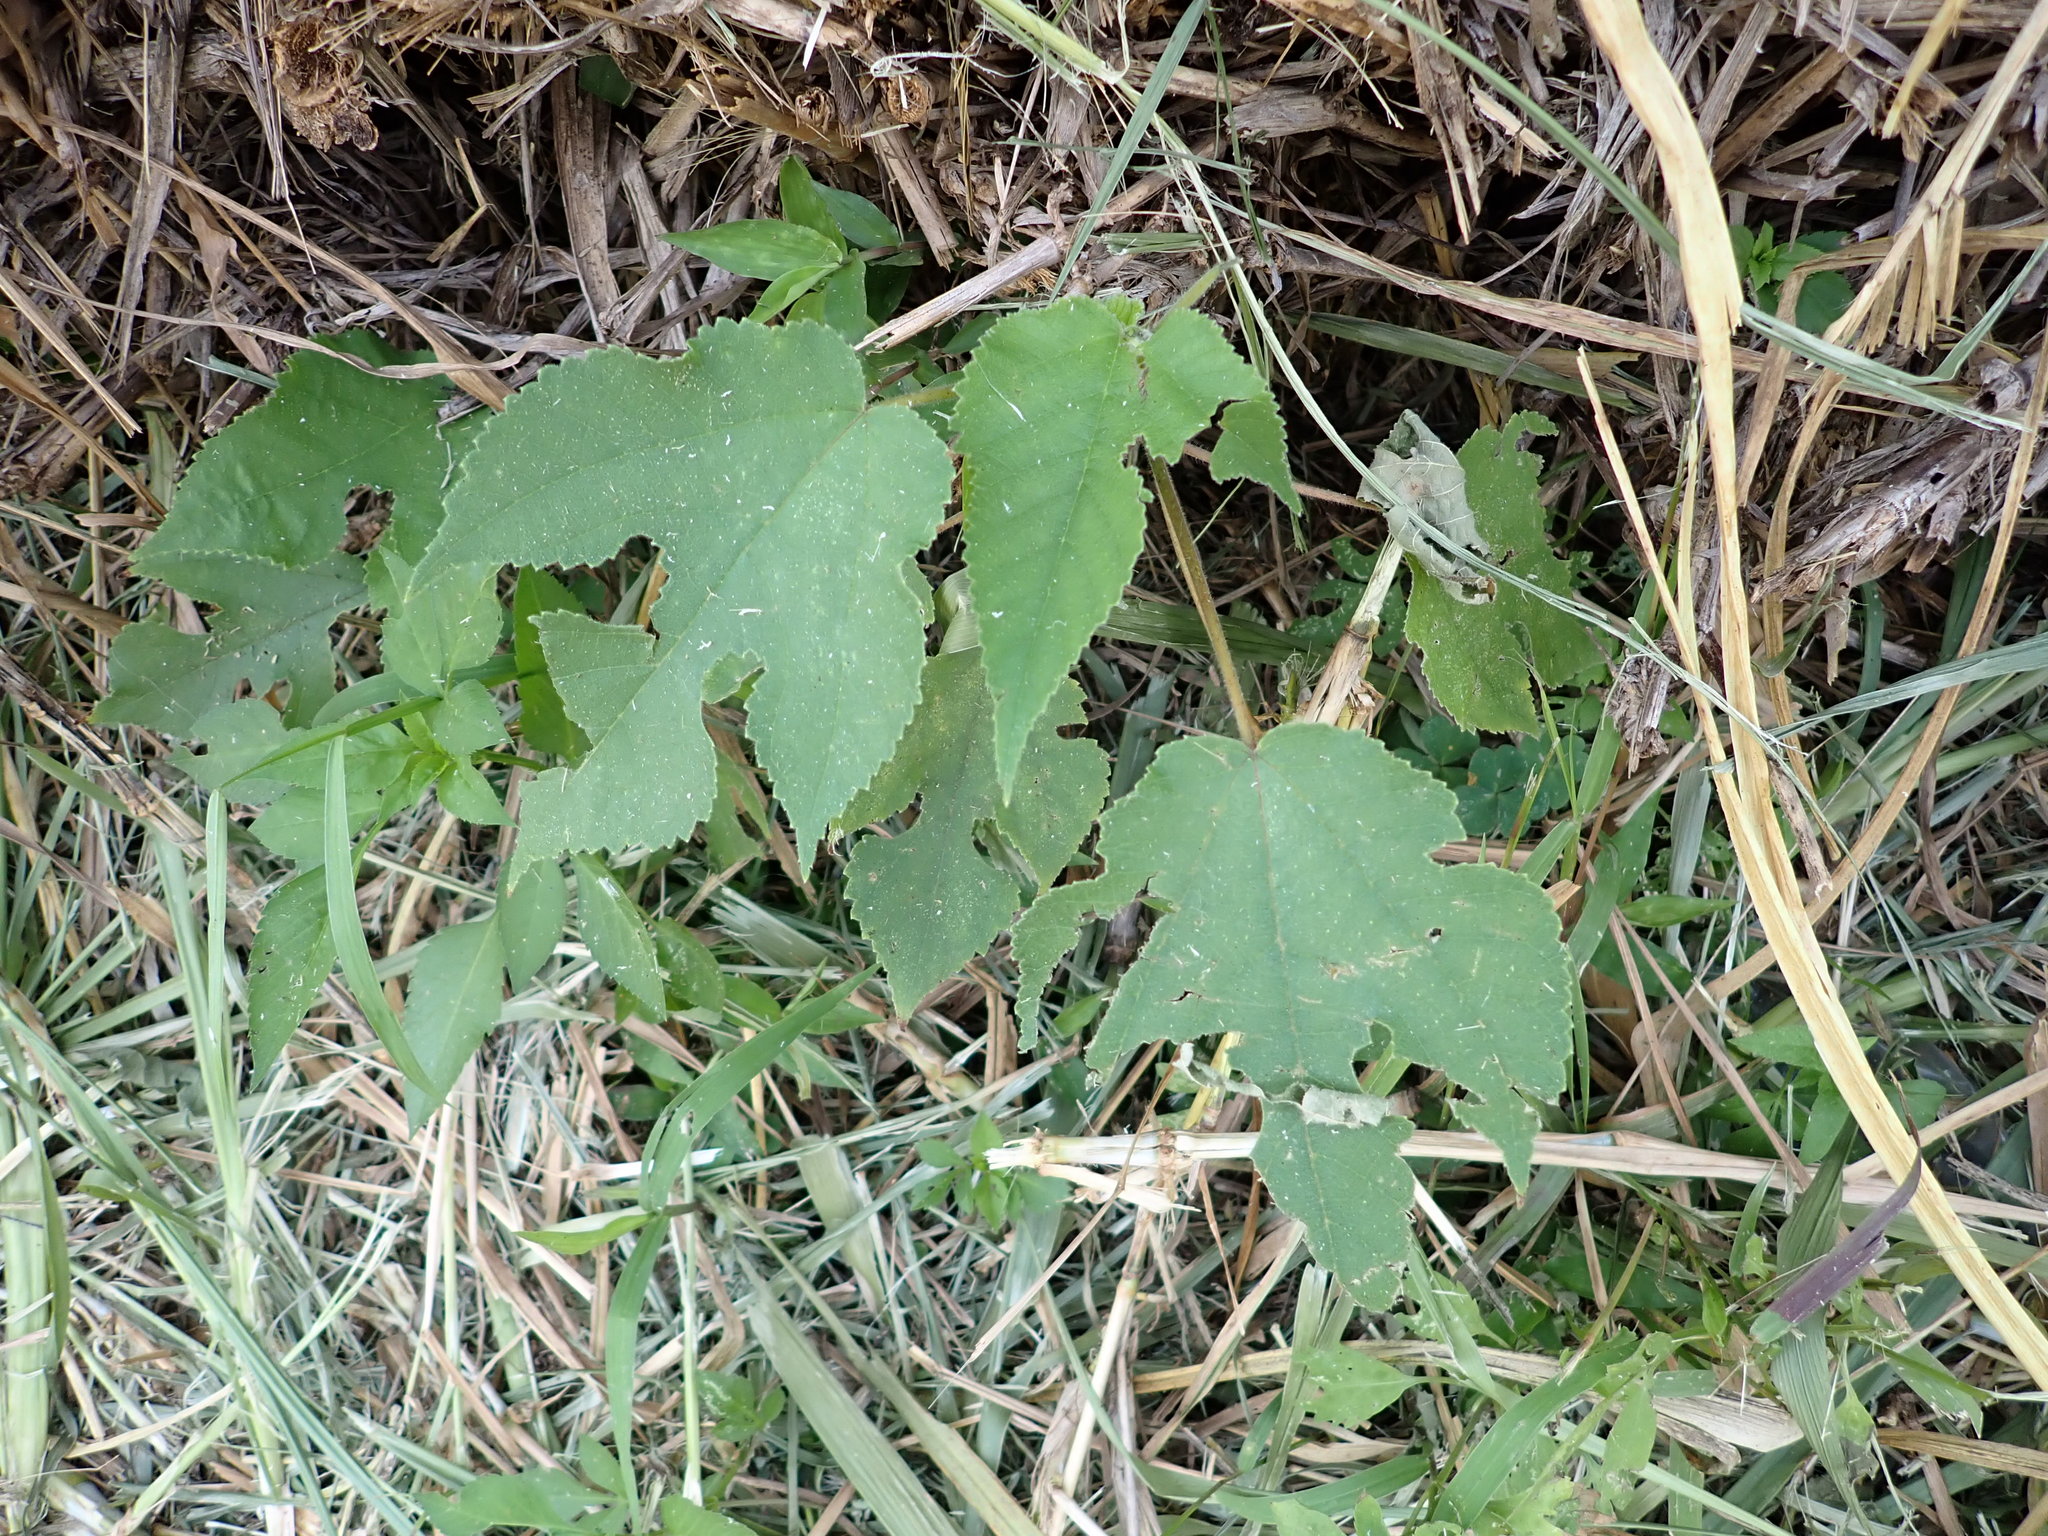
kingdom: Plantae
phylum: Tracheophyta
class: Magnoliopsida
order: Rosales
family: Moraceae
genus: Broussonetia
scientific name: Broussonetia papyrifera
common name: Paper mulberry
